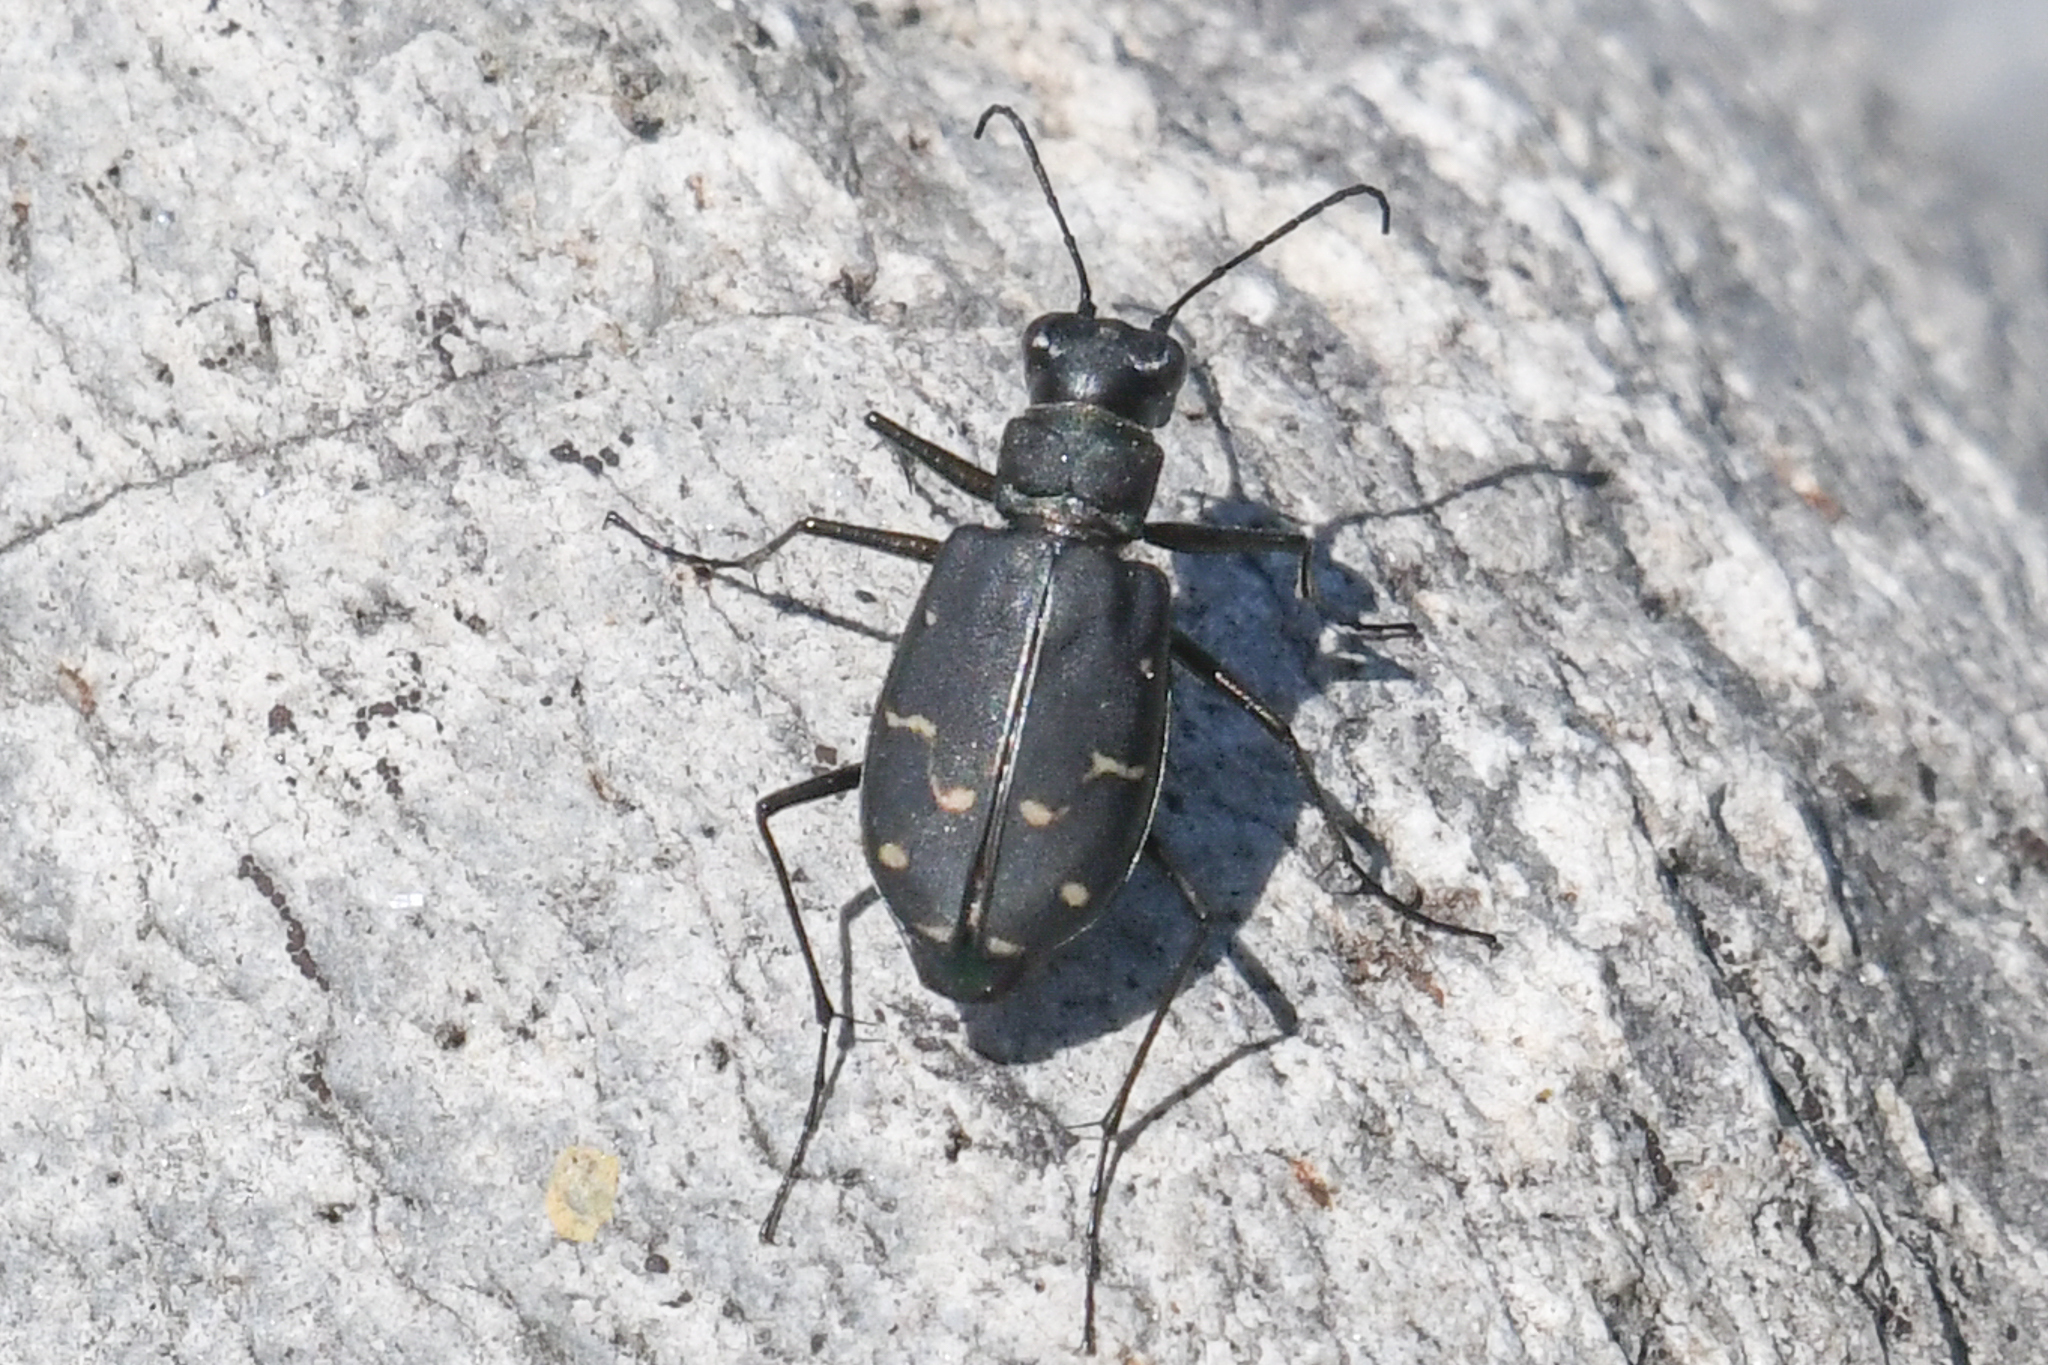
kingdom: Animalia
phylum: Arthropoda
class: Insecta
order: Coleoptera
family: Carabidae
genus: Cicindela
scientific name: Cicindela oregona
